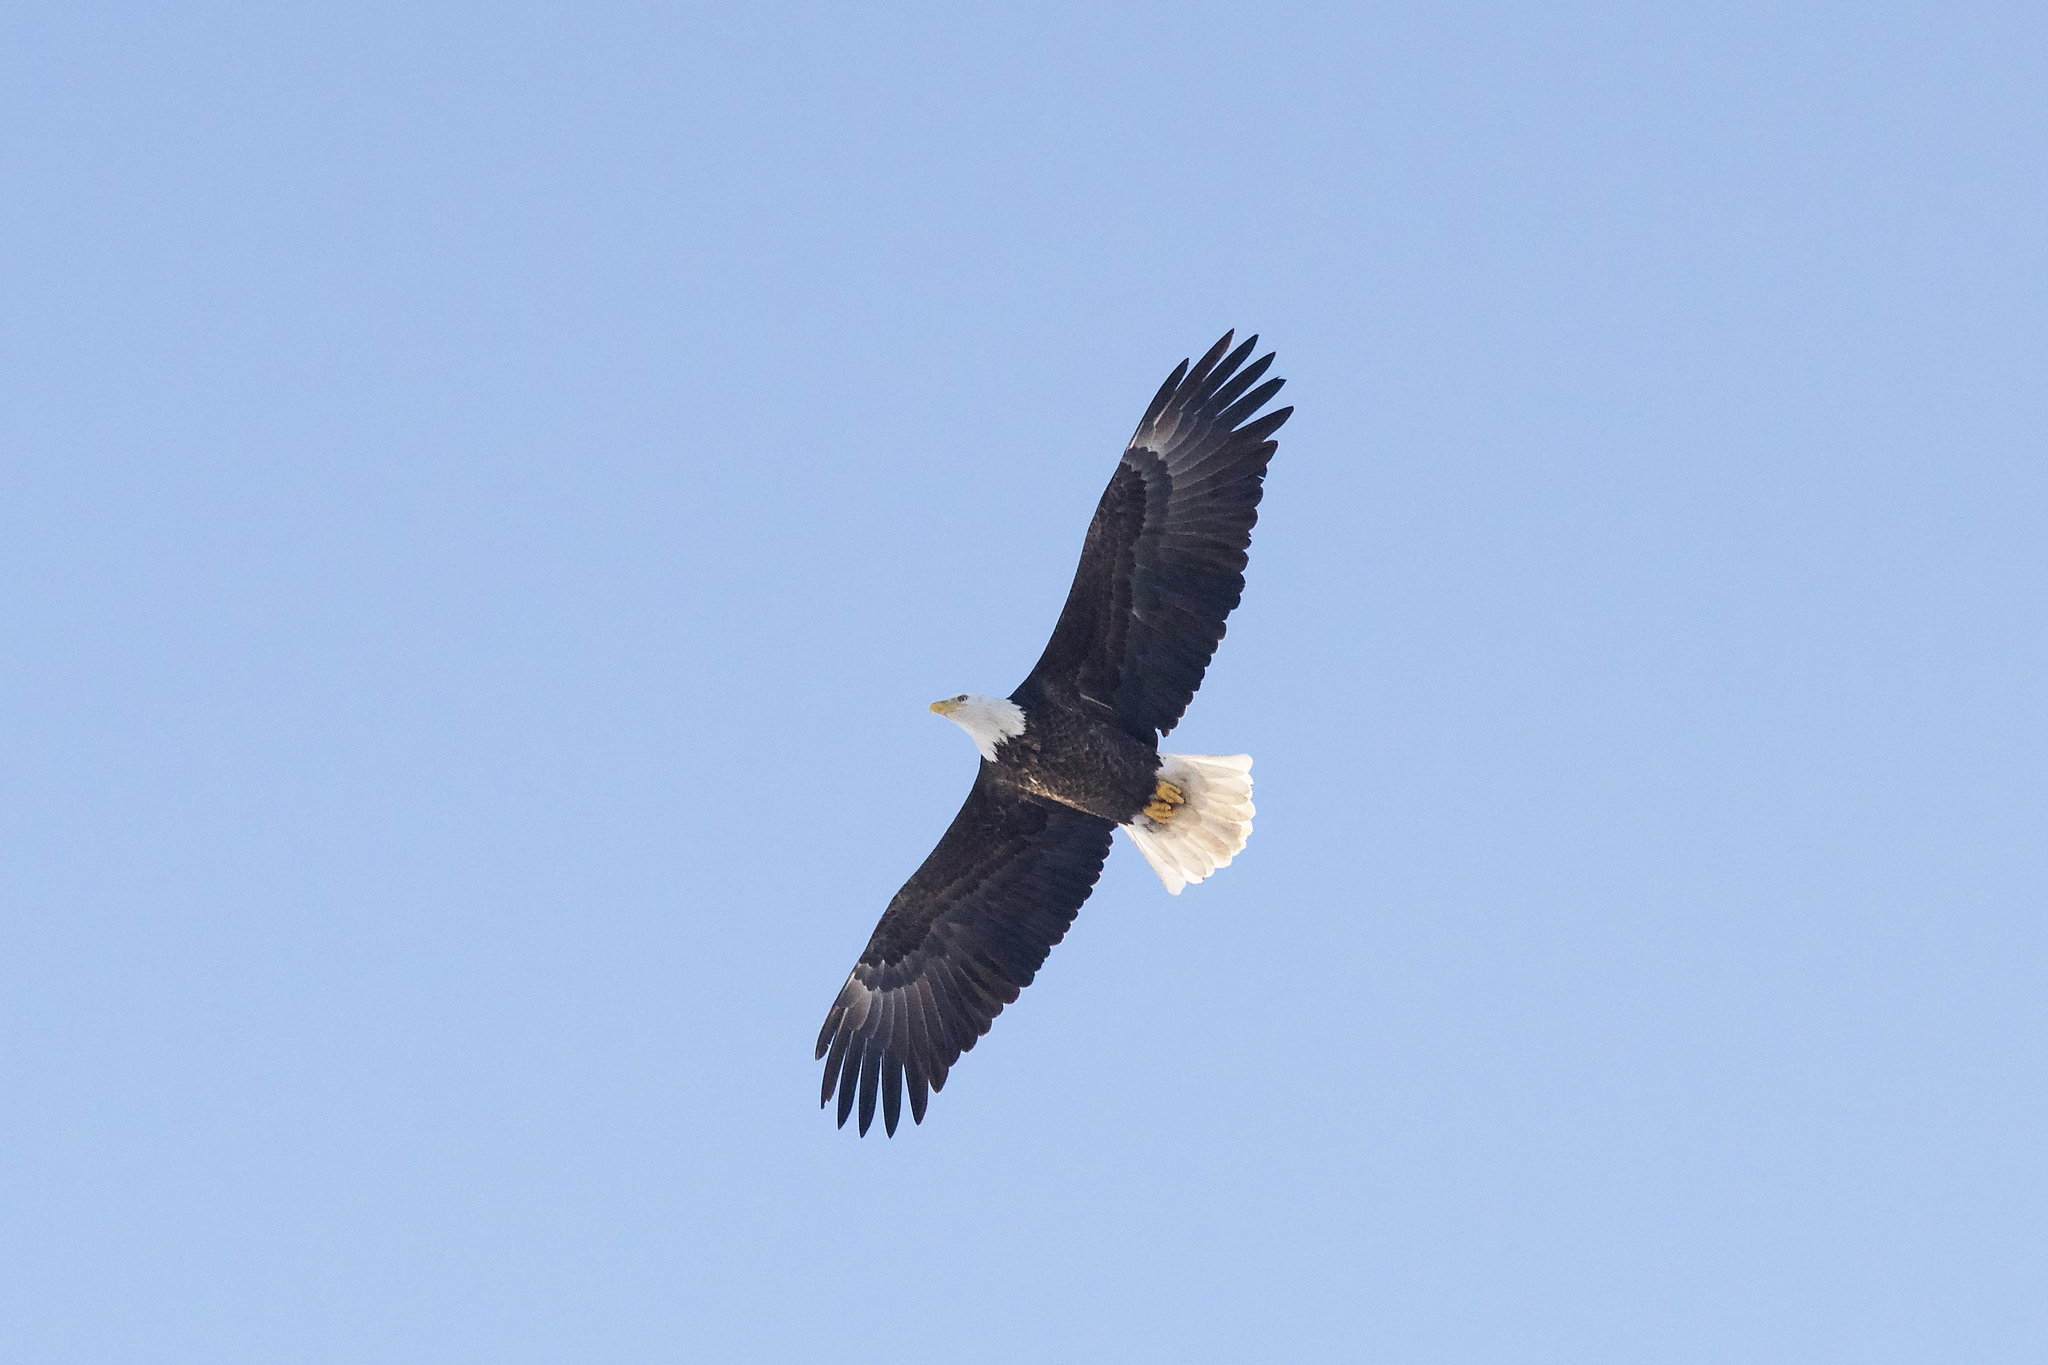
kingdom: Animalia
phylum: Chordata
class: Aves
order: Accipitriformes
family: Accipitridae
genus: Haliaeetus
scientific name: Haliaeetus leucocephalus
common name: Bald eagle
